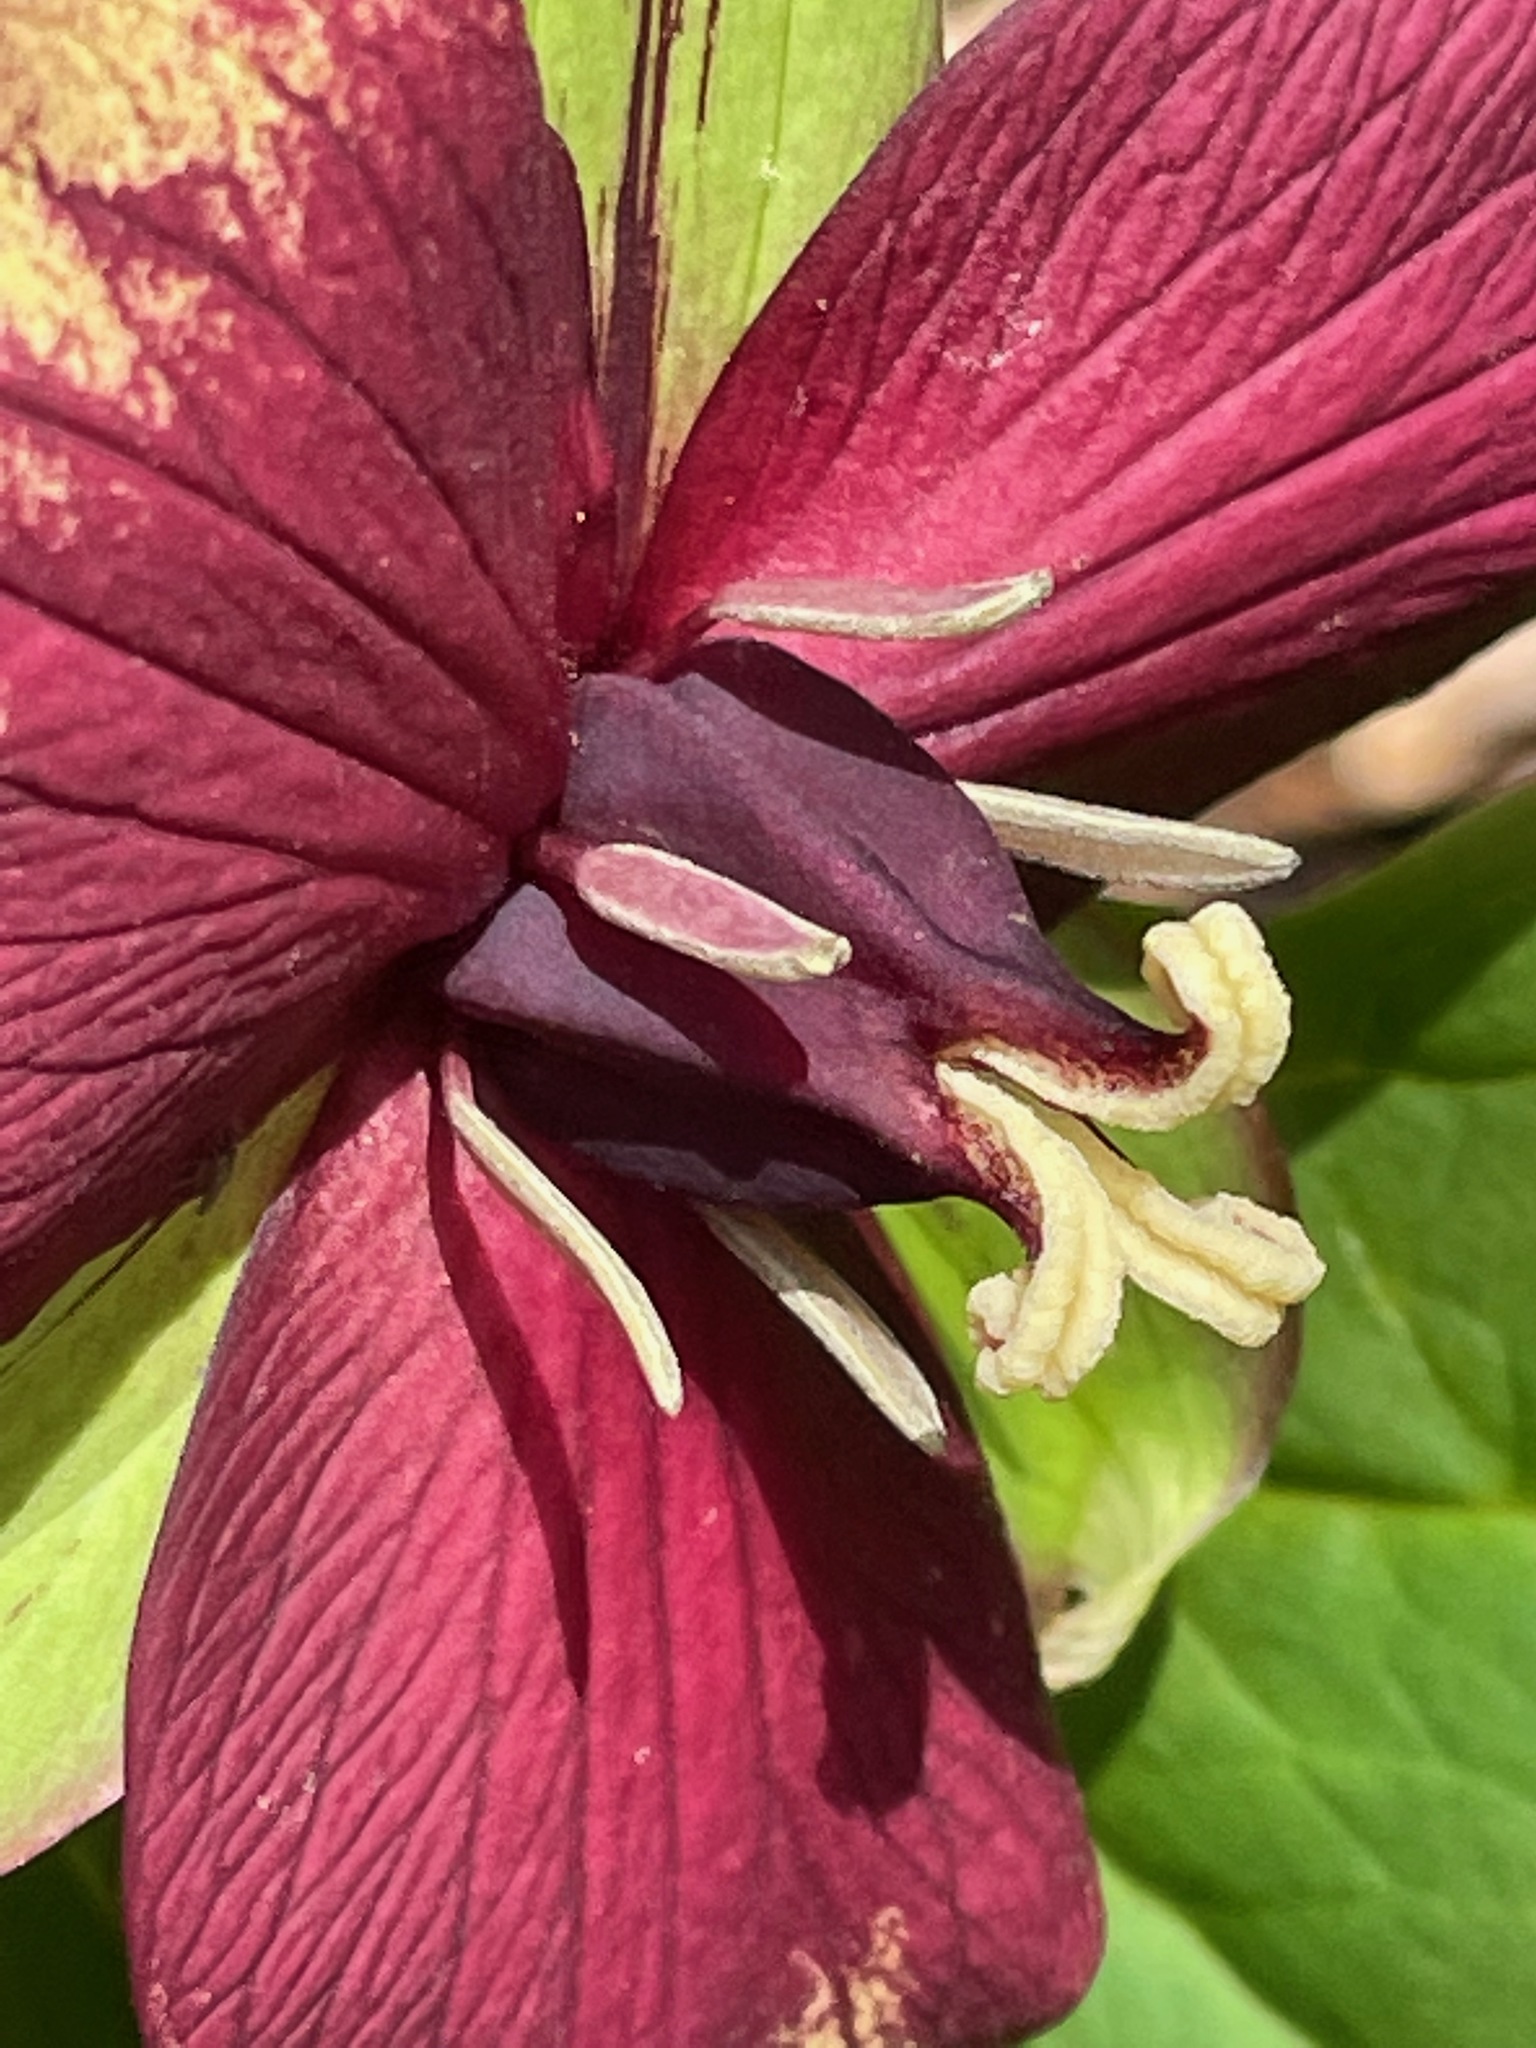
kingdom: Plantae
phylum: Tracheophyta
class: Liliopsida
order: Liliales
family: Melanthiaceae
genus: Trillium
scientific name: Trillium erectum
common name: Purple trillium
